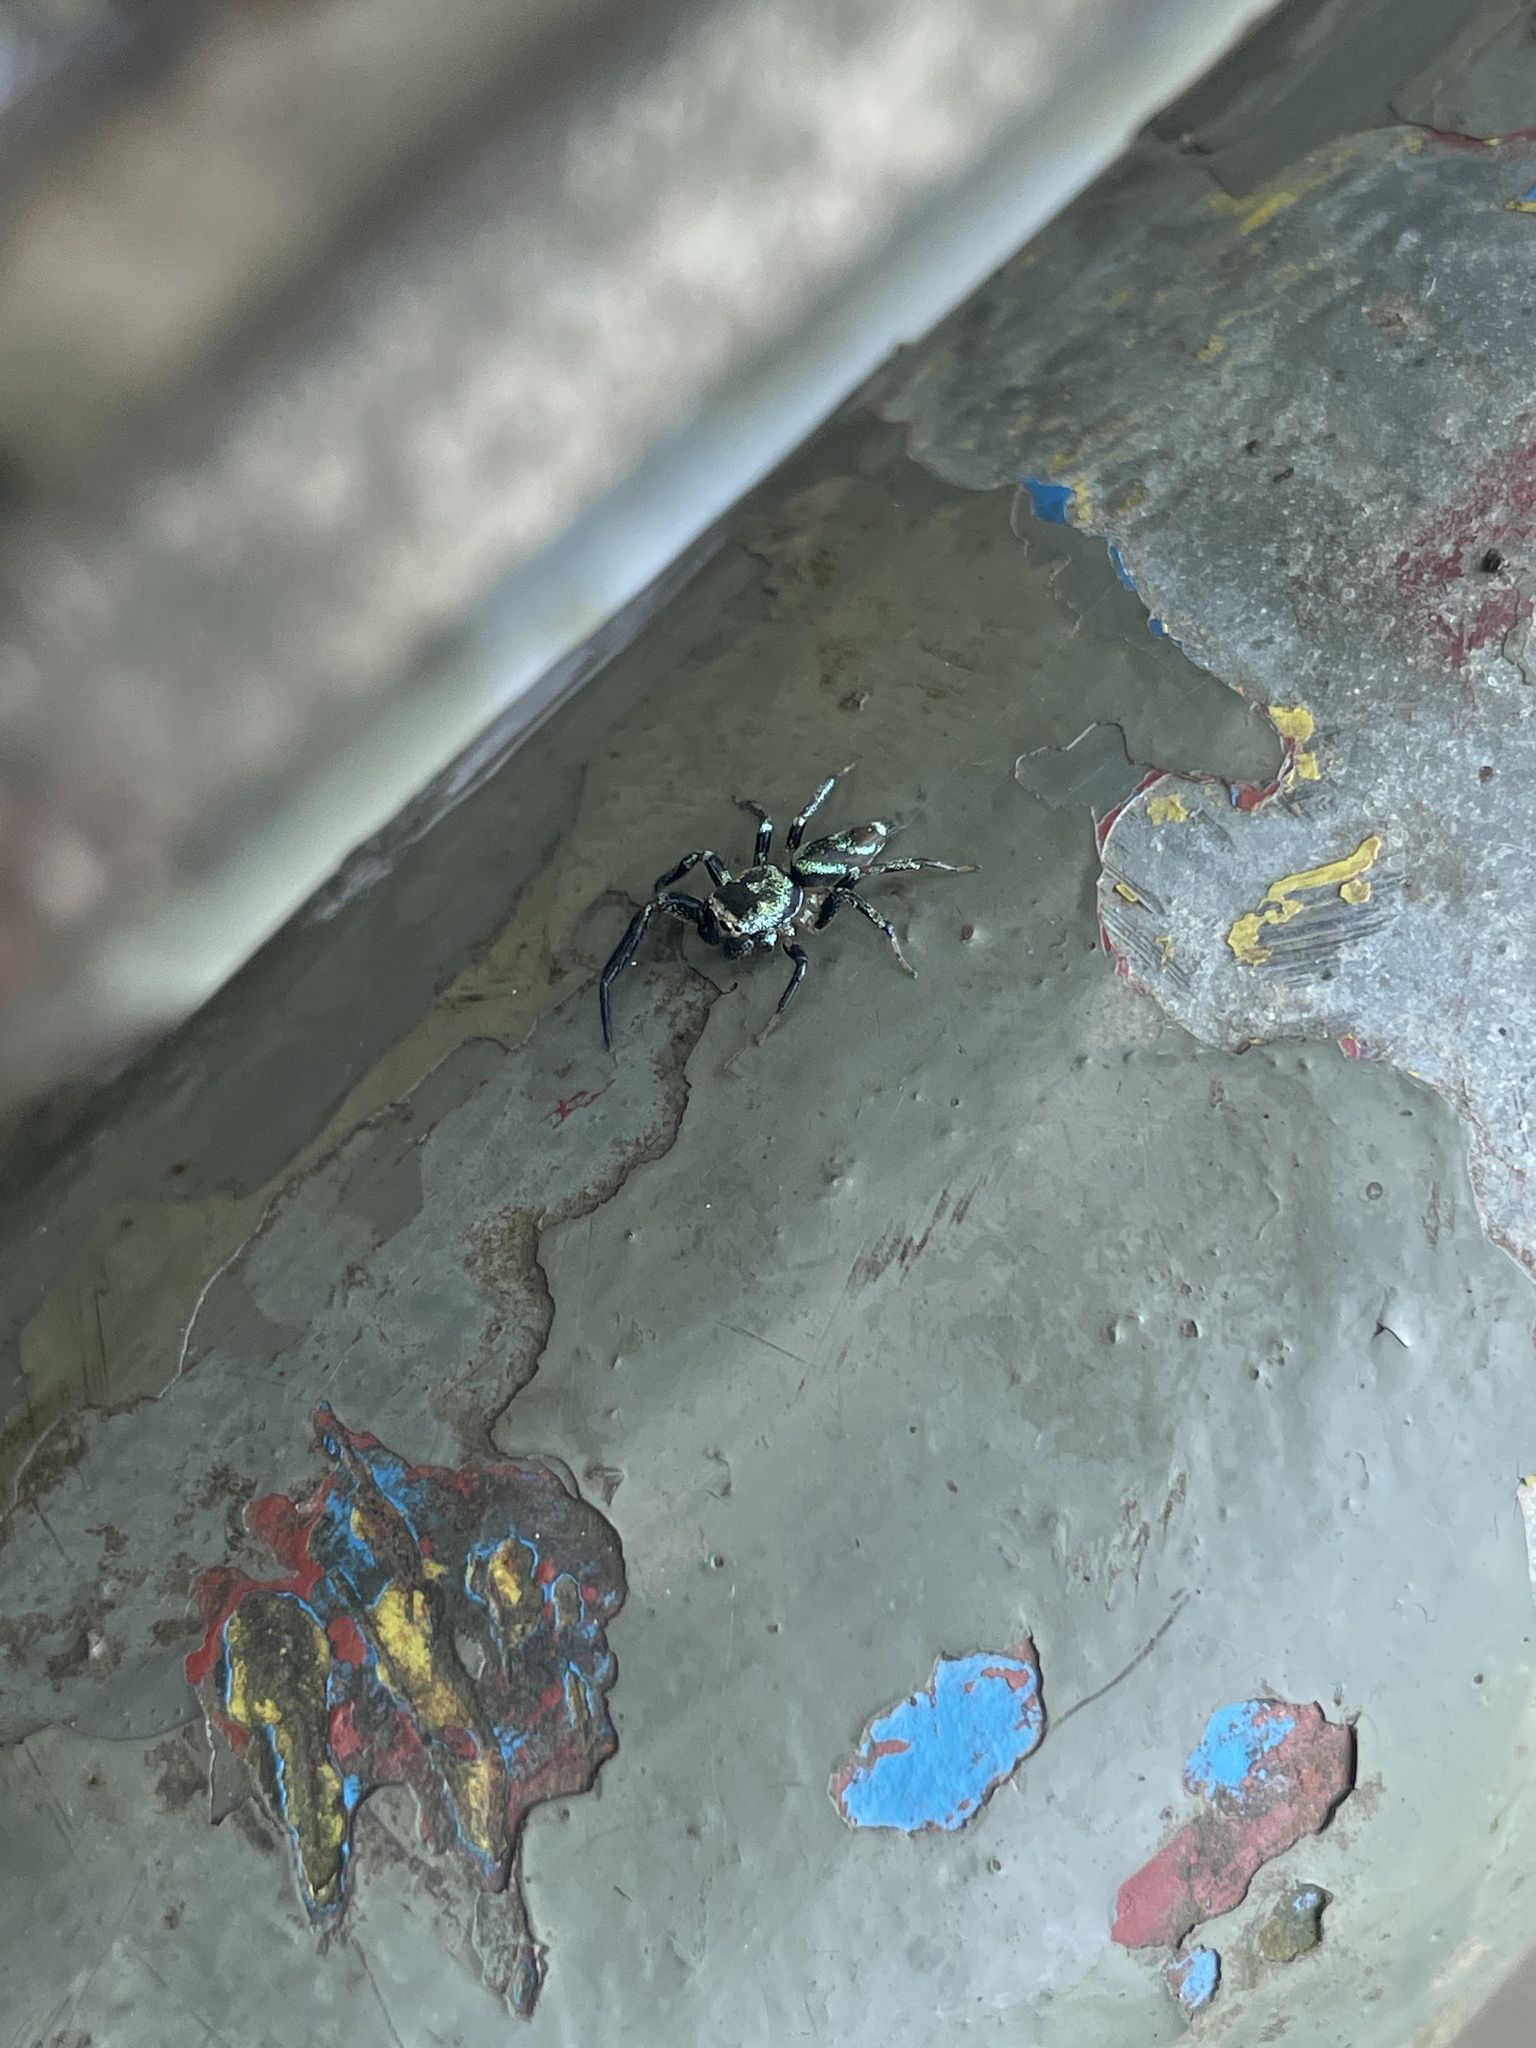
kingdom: Animalia
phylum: Arthropoda
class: Arachnida
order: Araneae
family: Salticidae
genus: Thiania
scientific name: Thiania bhamoensis
